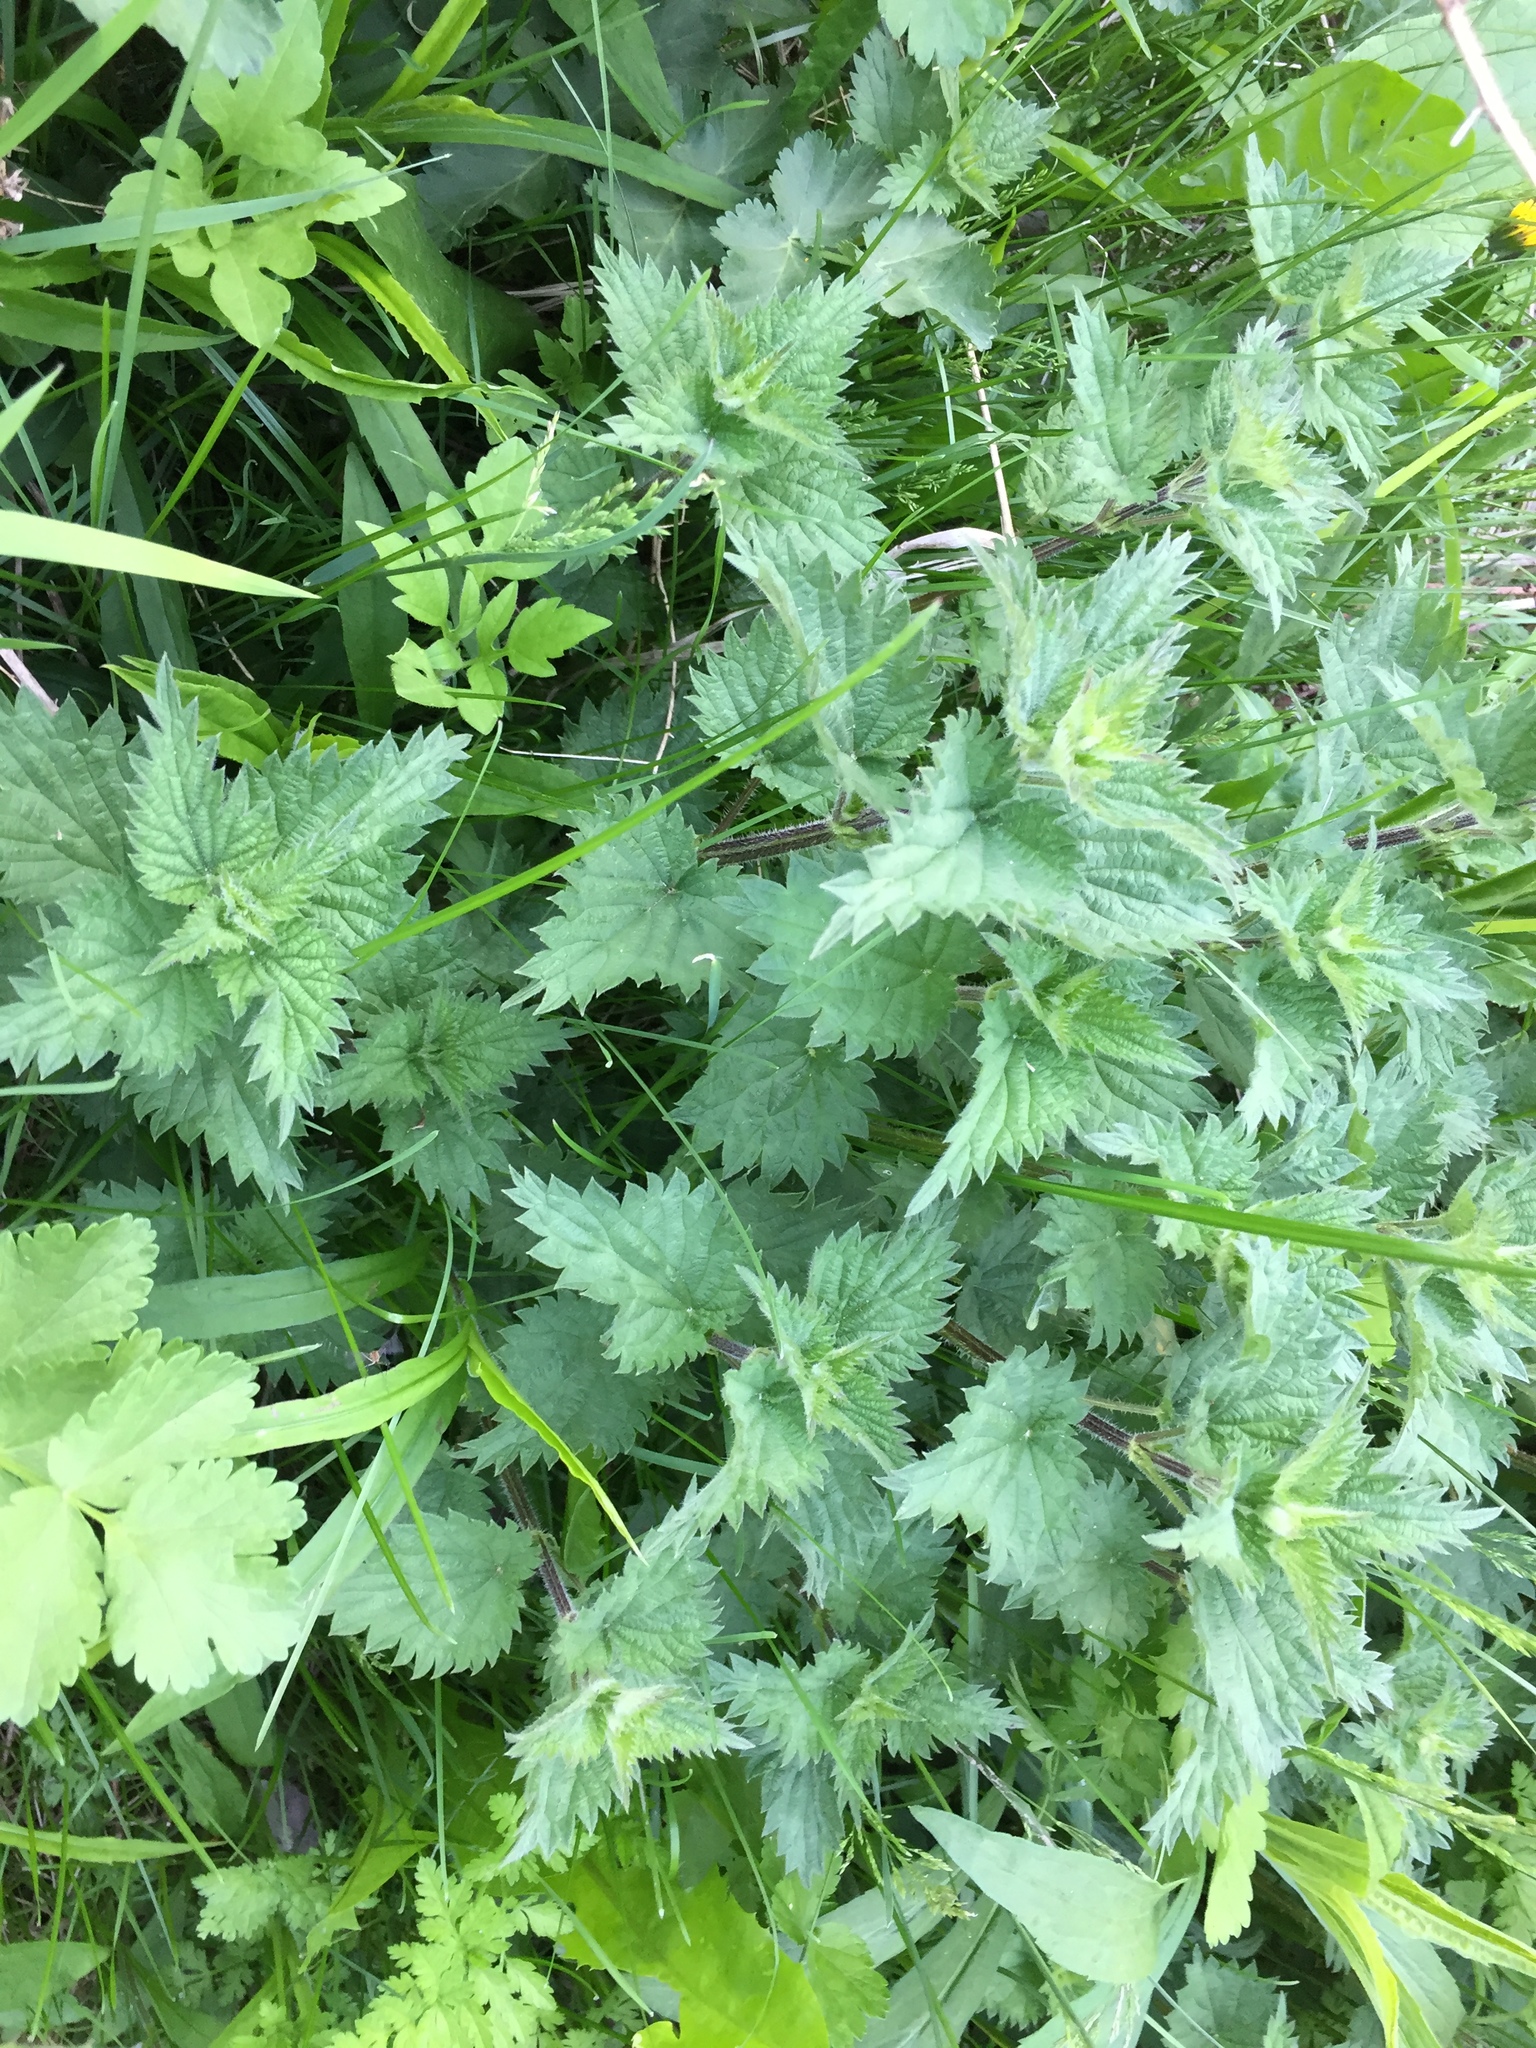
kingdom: Plantae
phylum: Tracheophyta
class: Magnoliopsida
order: Rosales
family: Urticaceae
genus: Urtica
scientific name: Urtica dioica
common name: Common nettle
